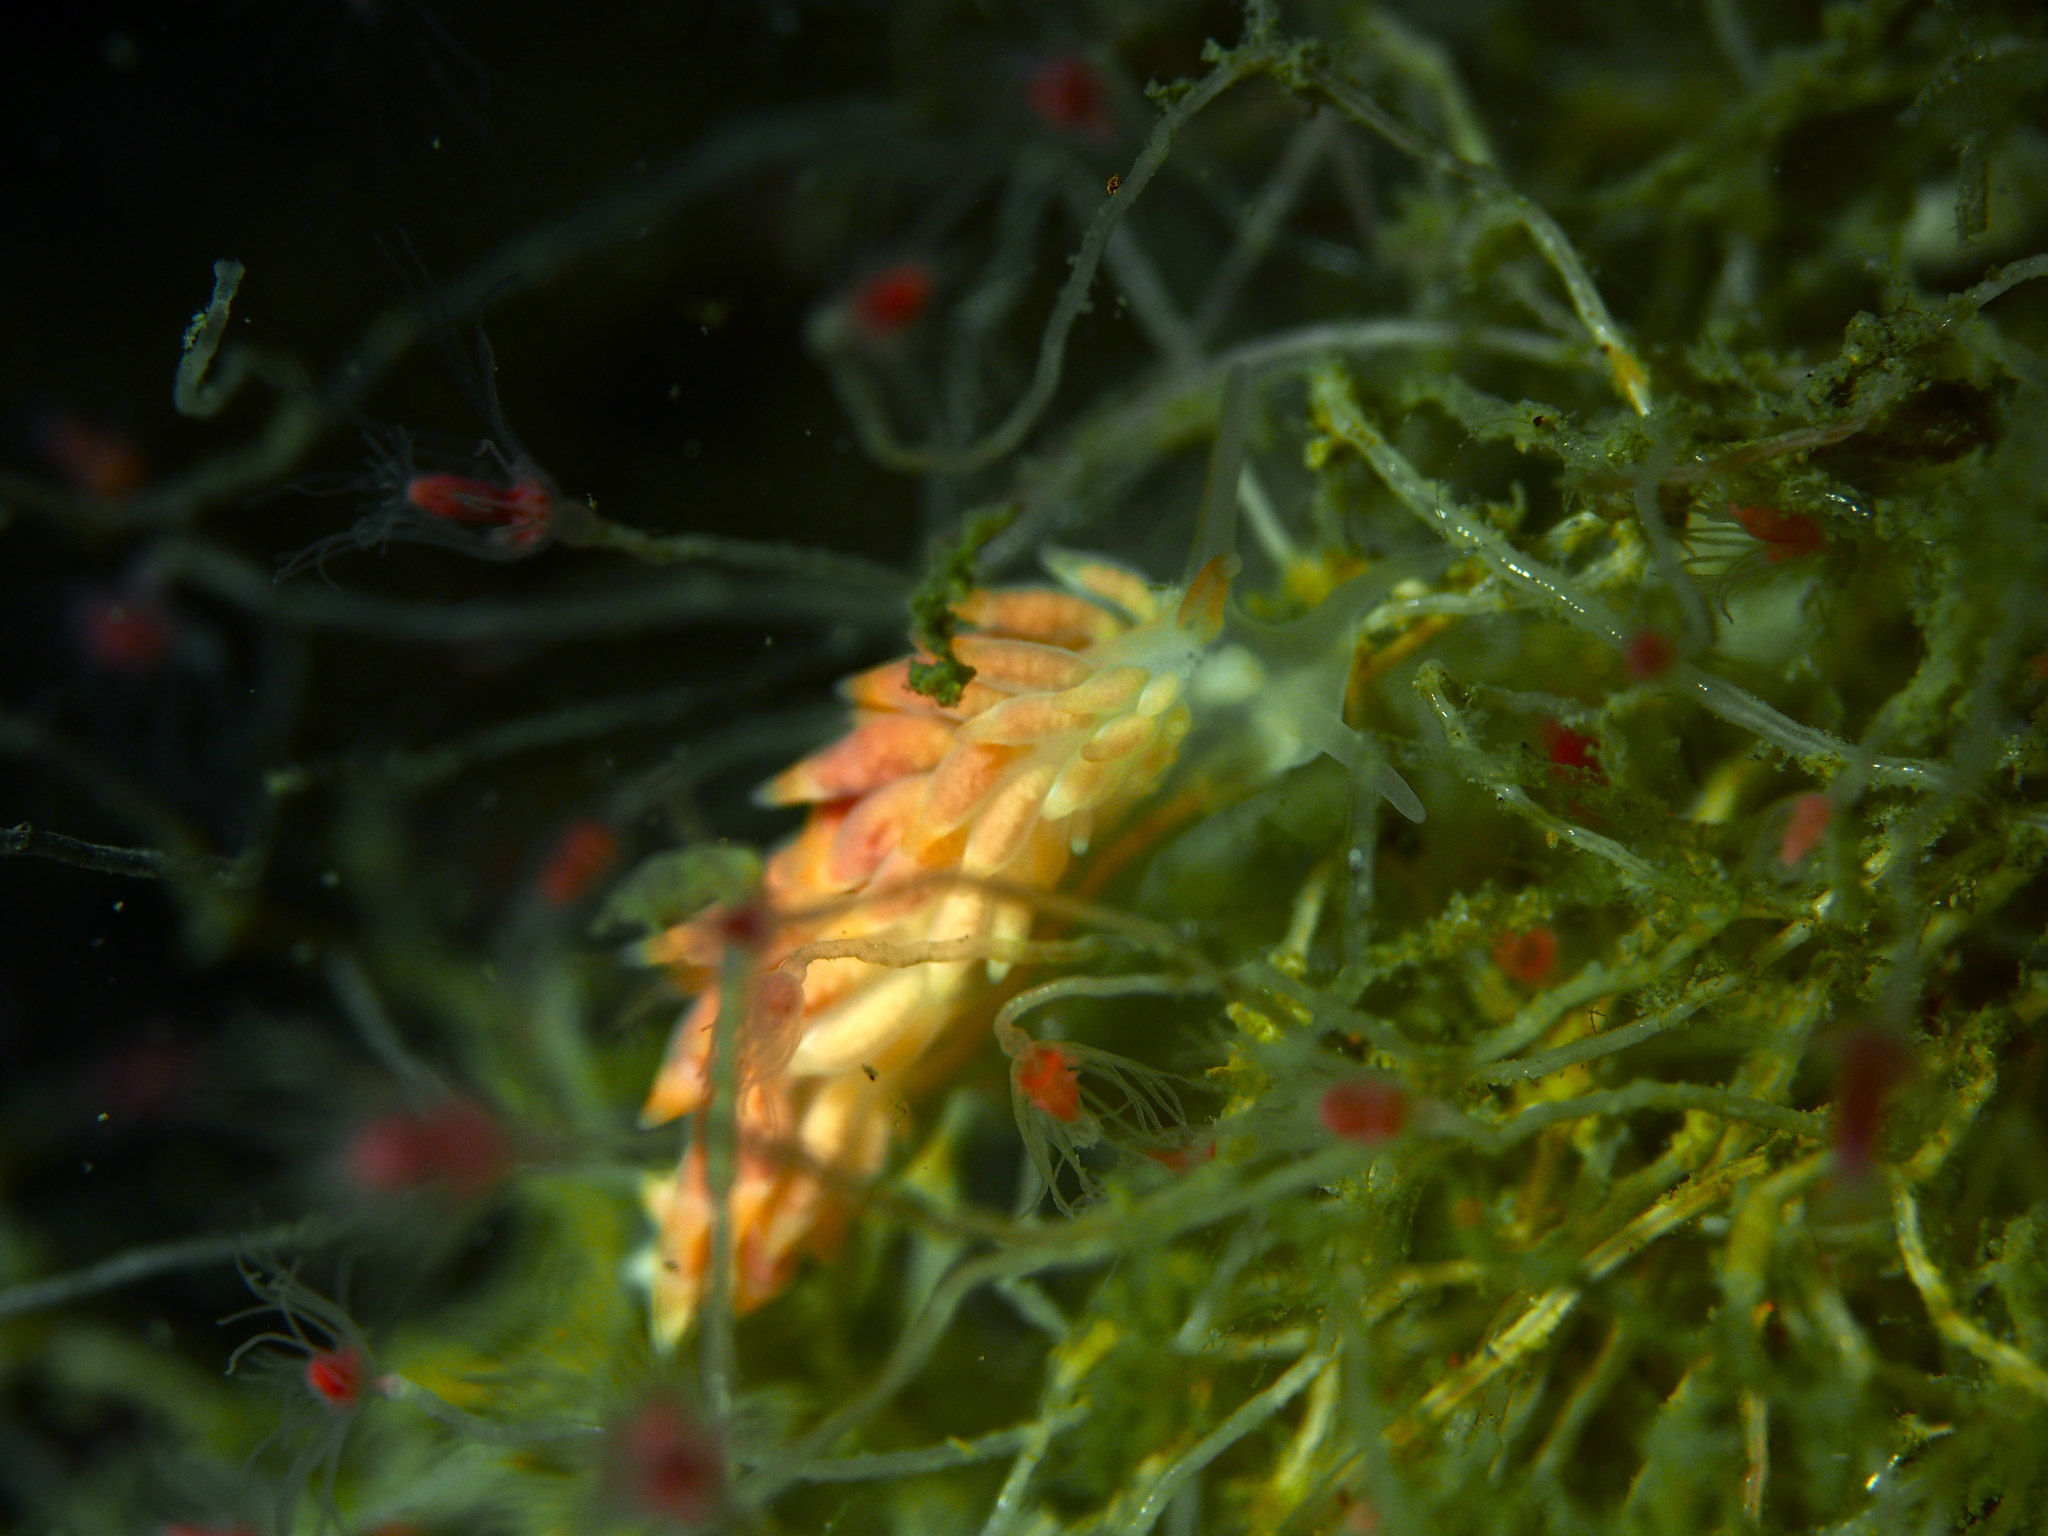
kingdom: Animalia
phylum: Mollusca
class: Gastropoda
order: Nudibranchia
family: Trinchesiidae
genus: Catriona
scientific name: Catriona aurantia
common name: Corange-tip cuthona
